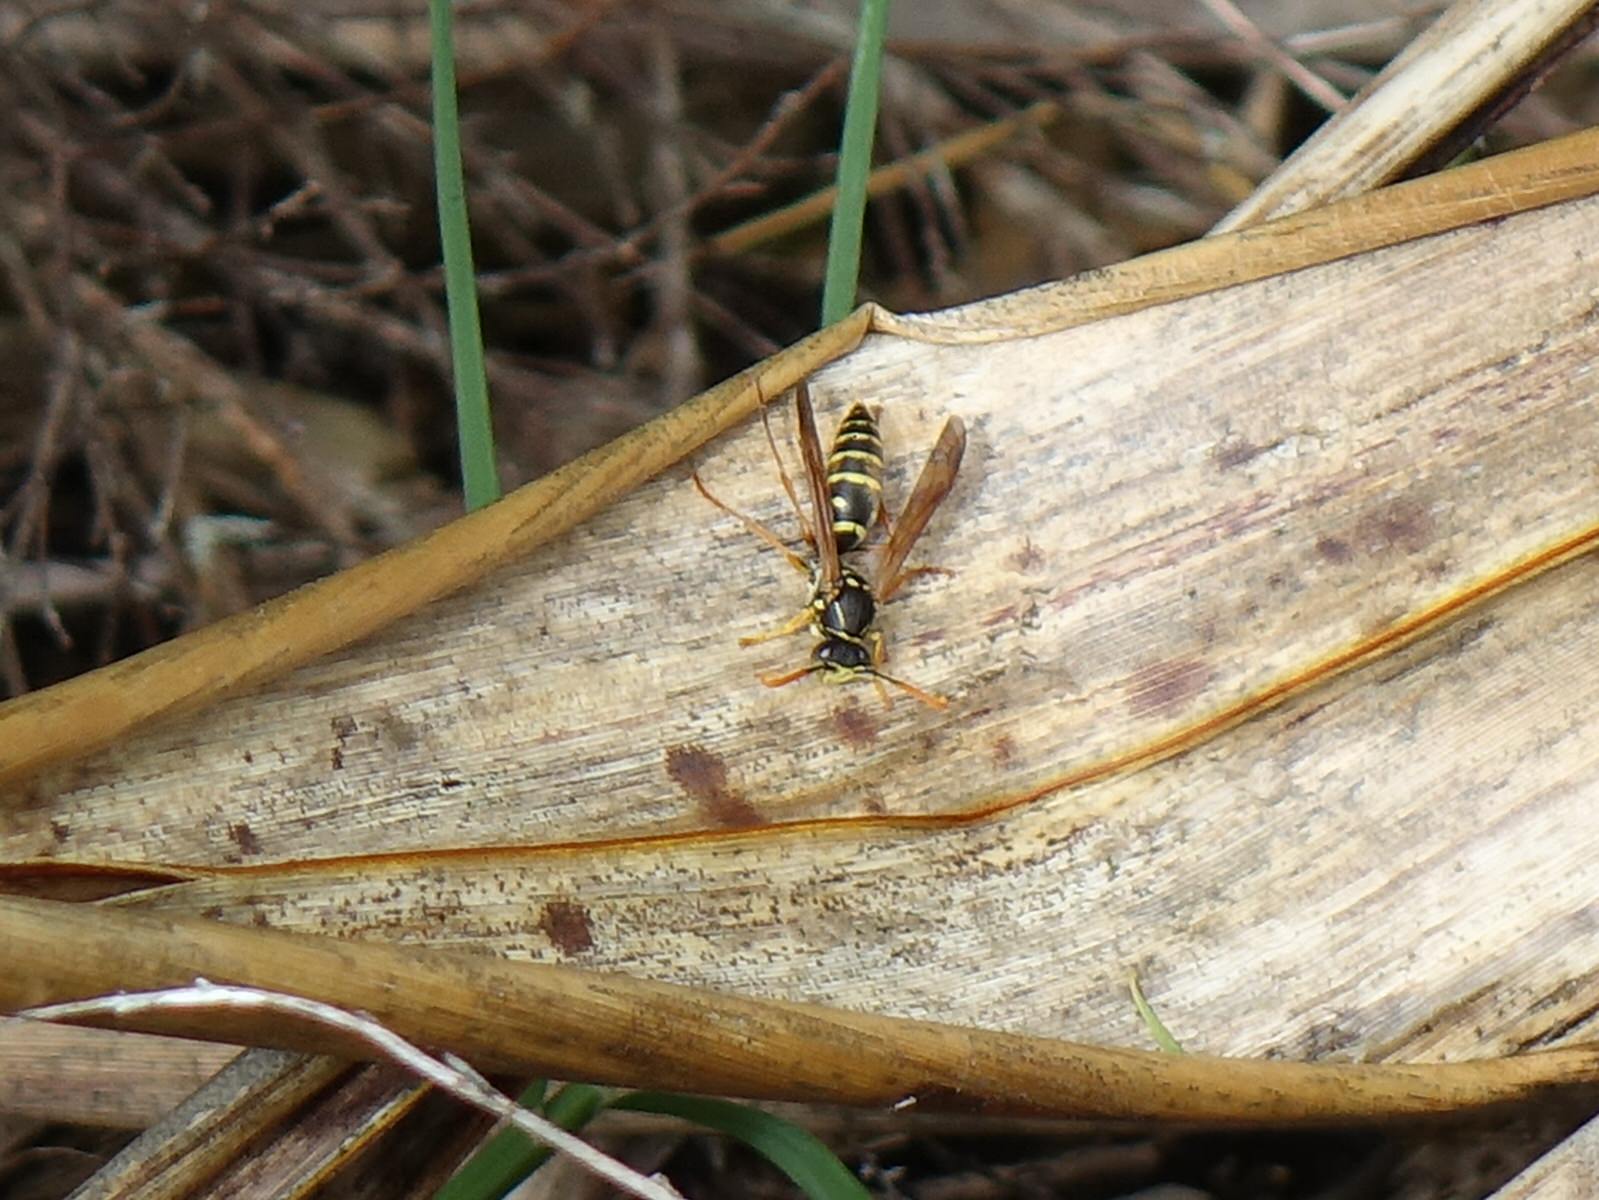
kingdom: Animalia
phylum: Arthropoda
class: Insecta
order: Hymenoptera
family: Eumenidae
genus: Polistes
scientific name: Polistes chinensis
